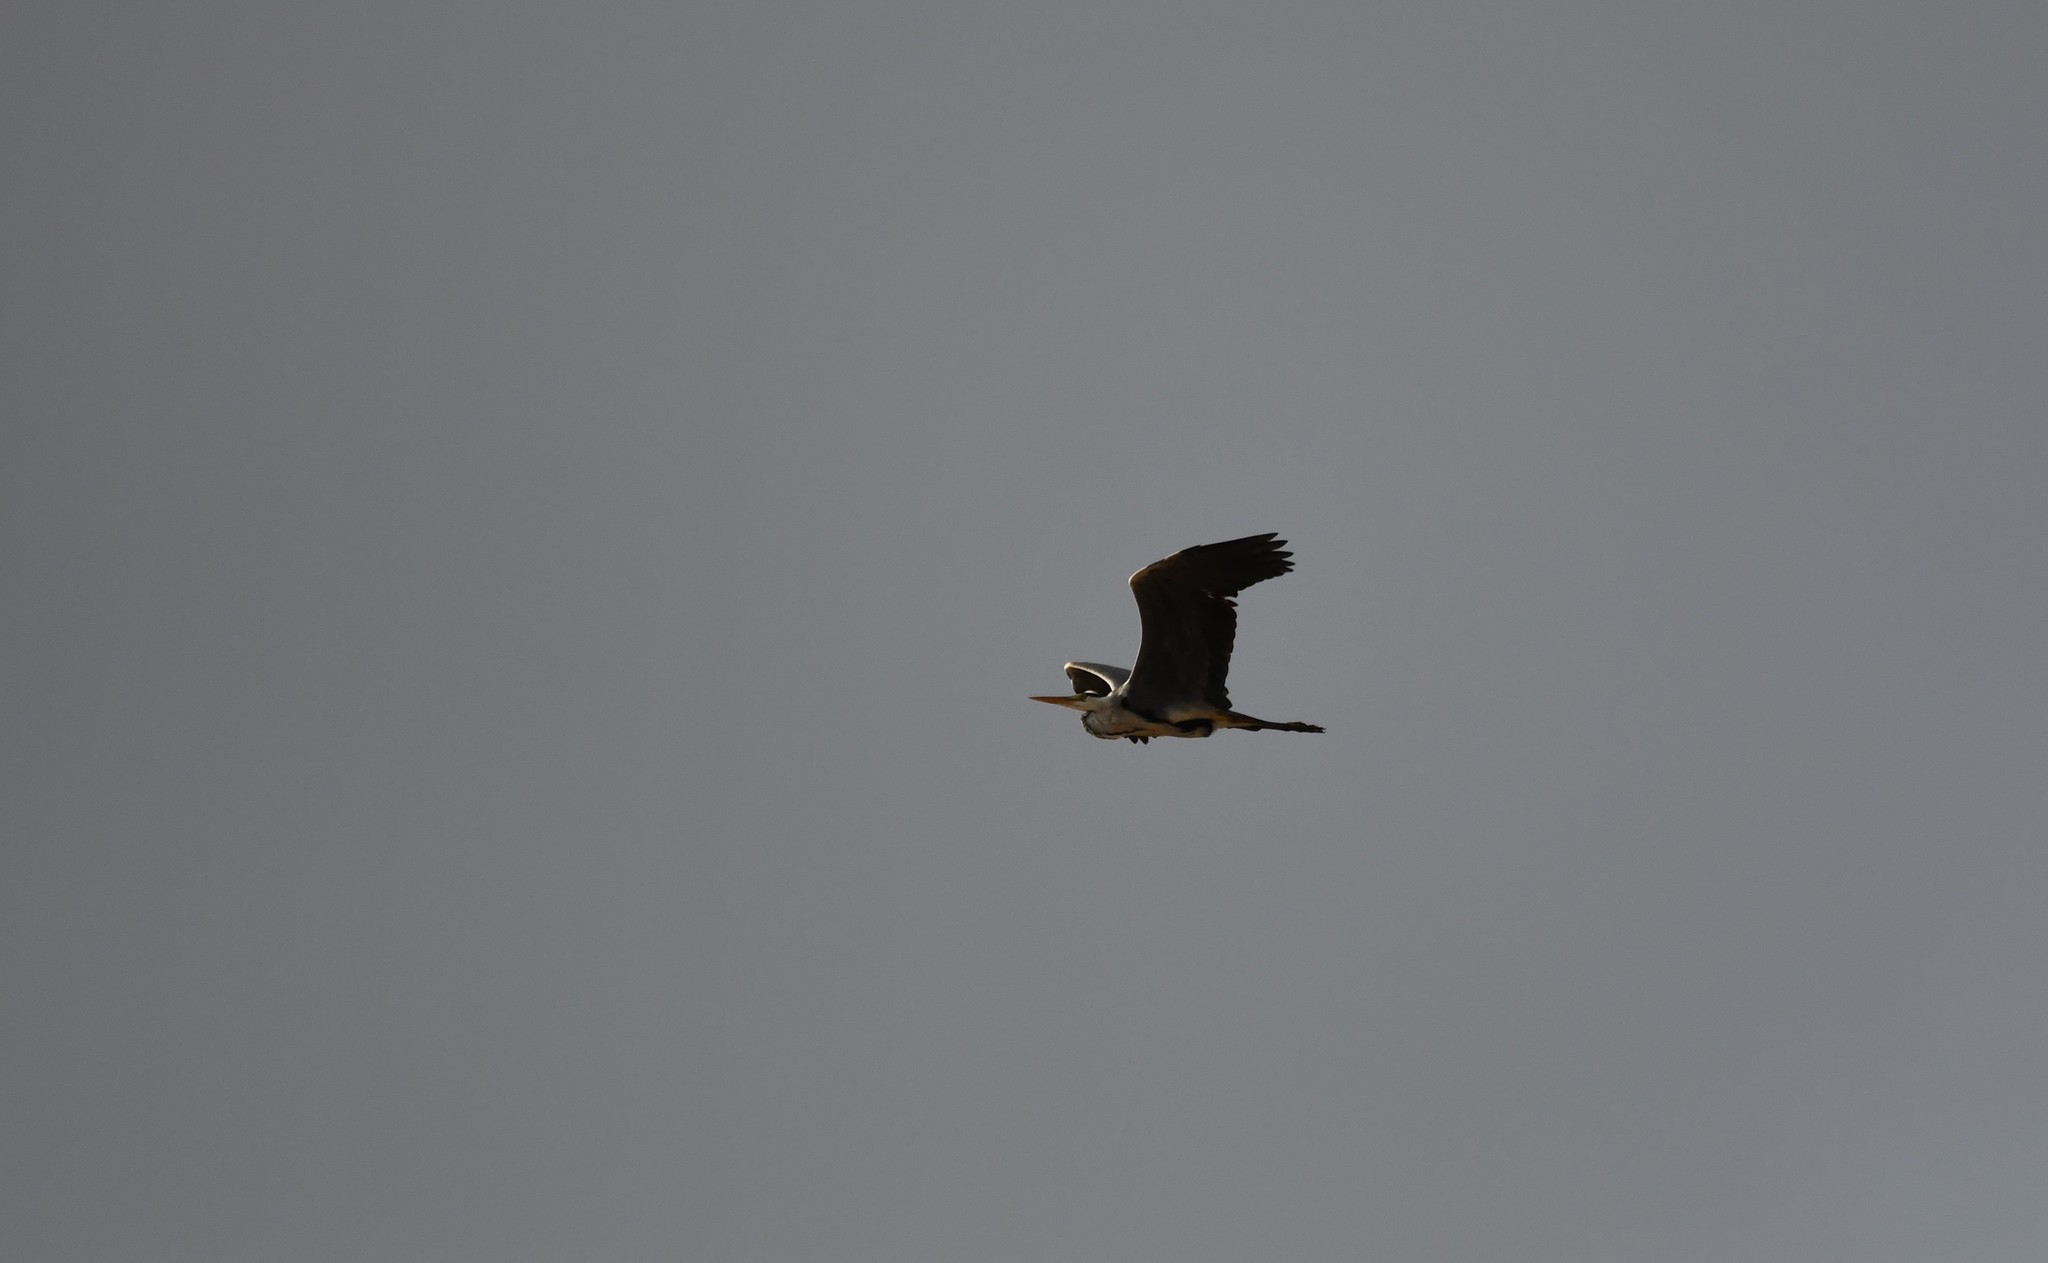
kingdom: Animalia
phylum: Chordata
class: Aves
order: Pelecaniformes
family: Ardeidae
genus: Ardea
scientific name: Ardea cinerea
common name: Grey heron
